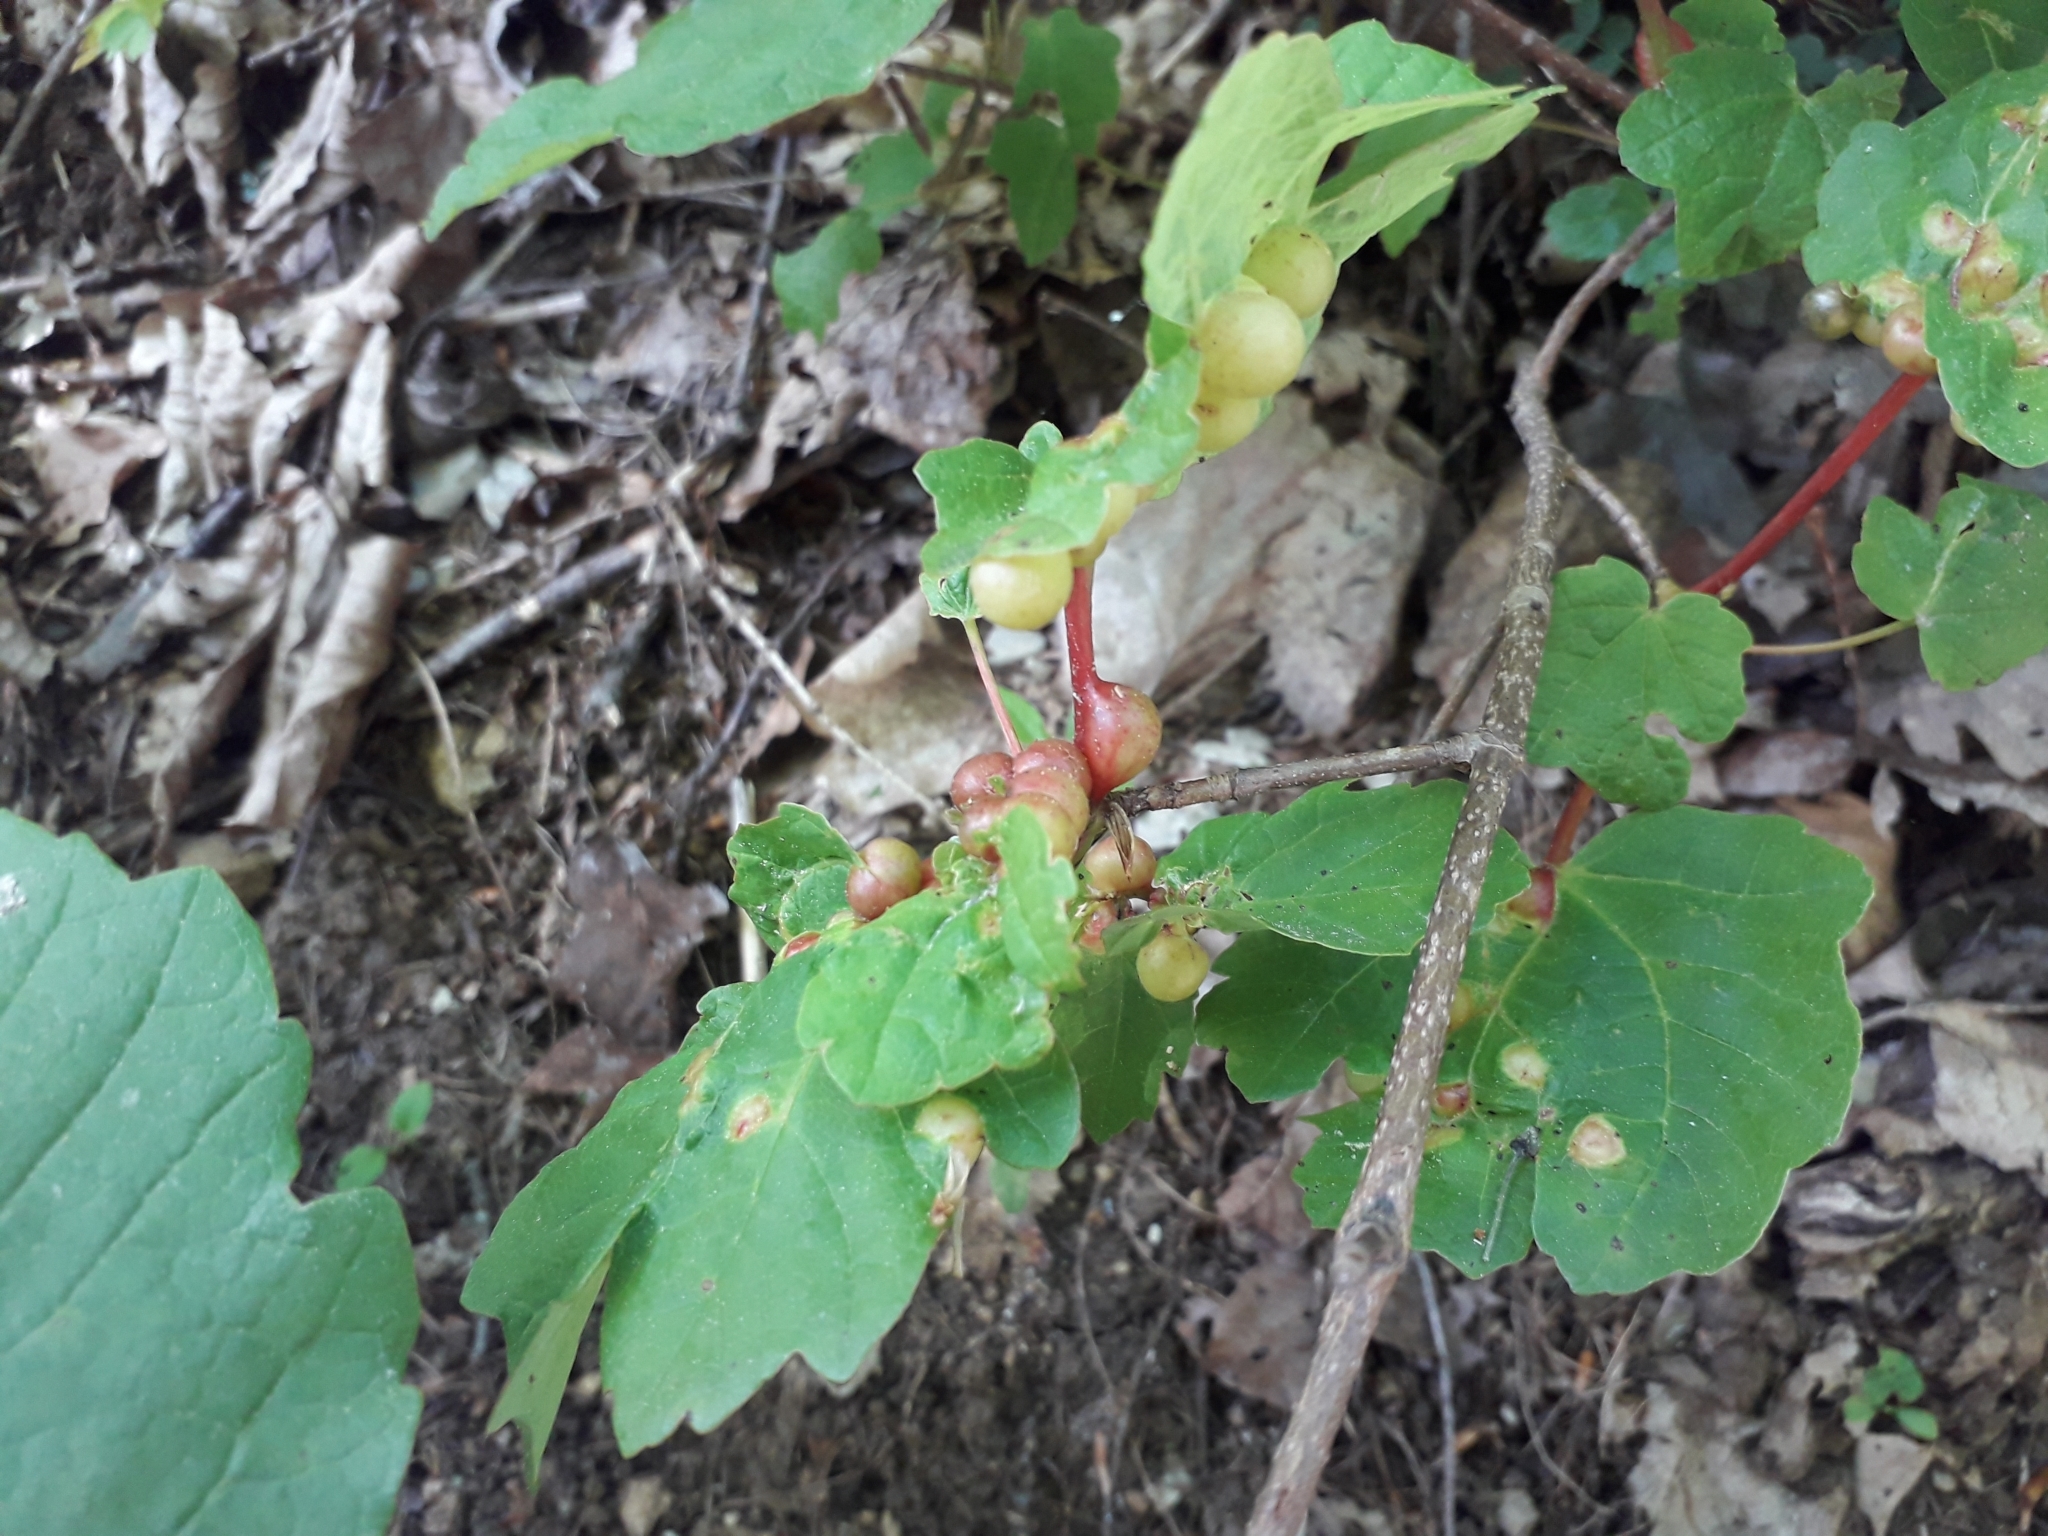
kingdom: Animalia
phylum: Arthropoda
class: Insecta
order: Hymenoptera
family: Cynipidae
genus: Pediaspis
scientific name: Pediaspis aceris
